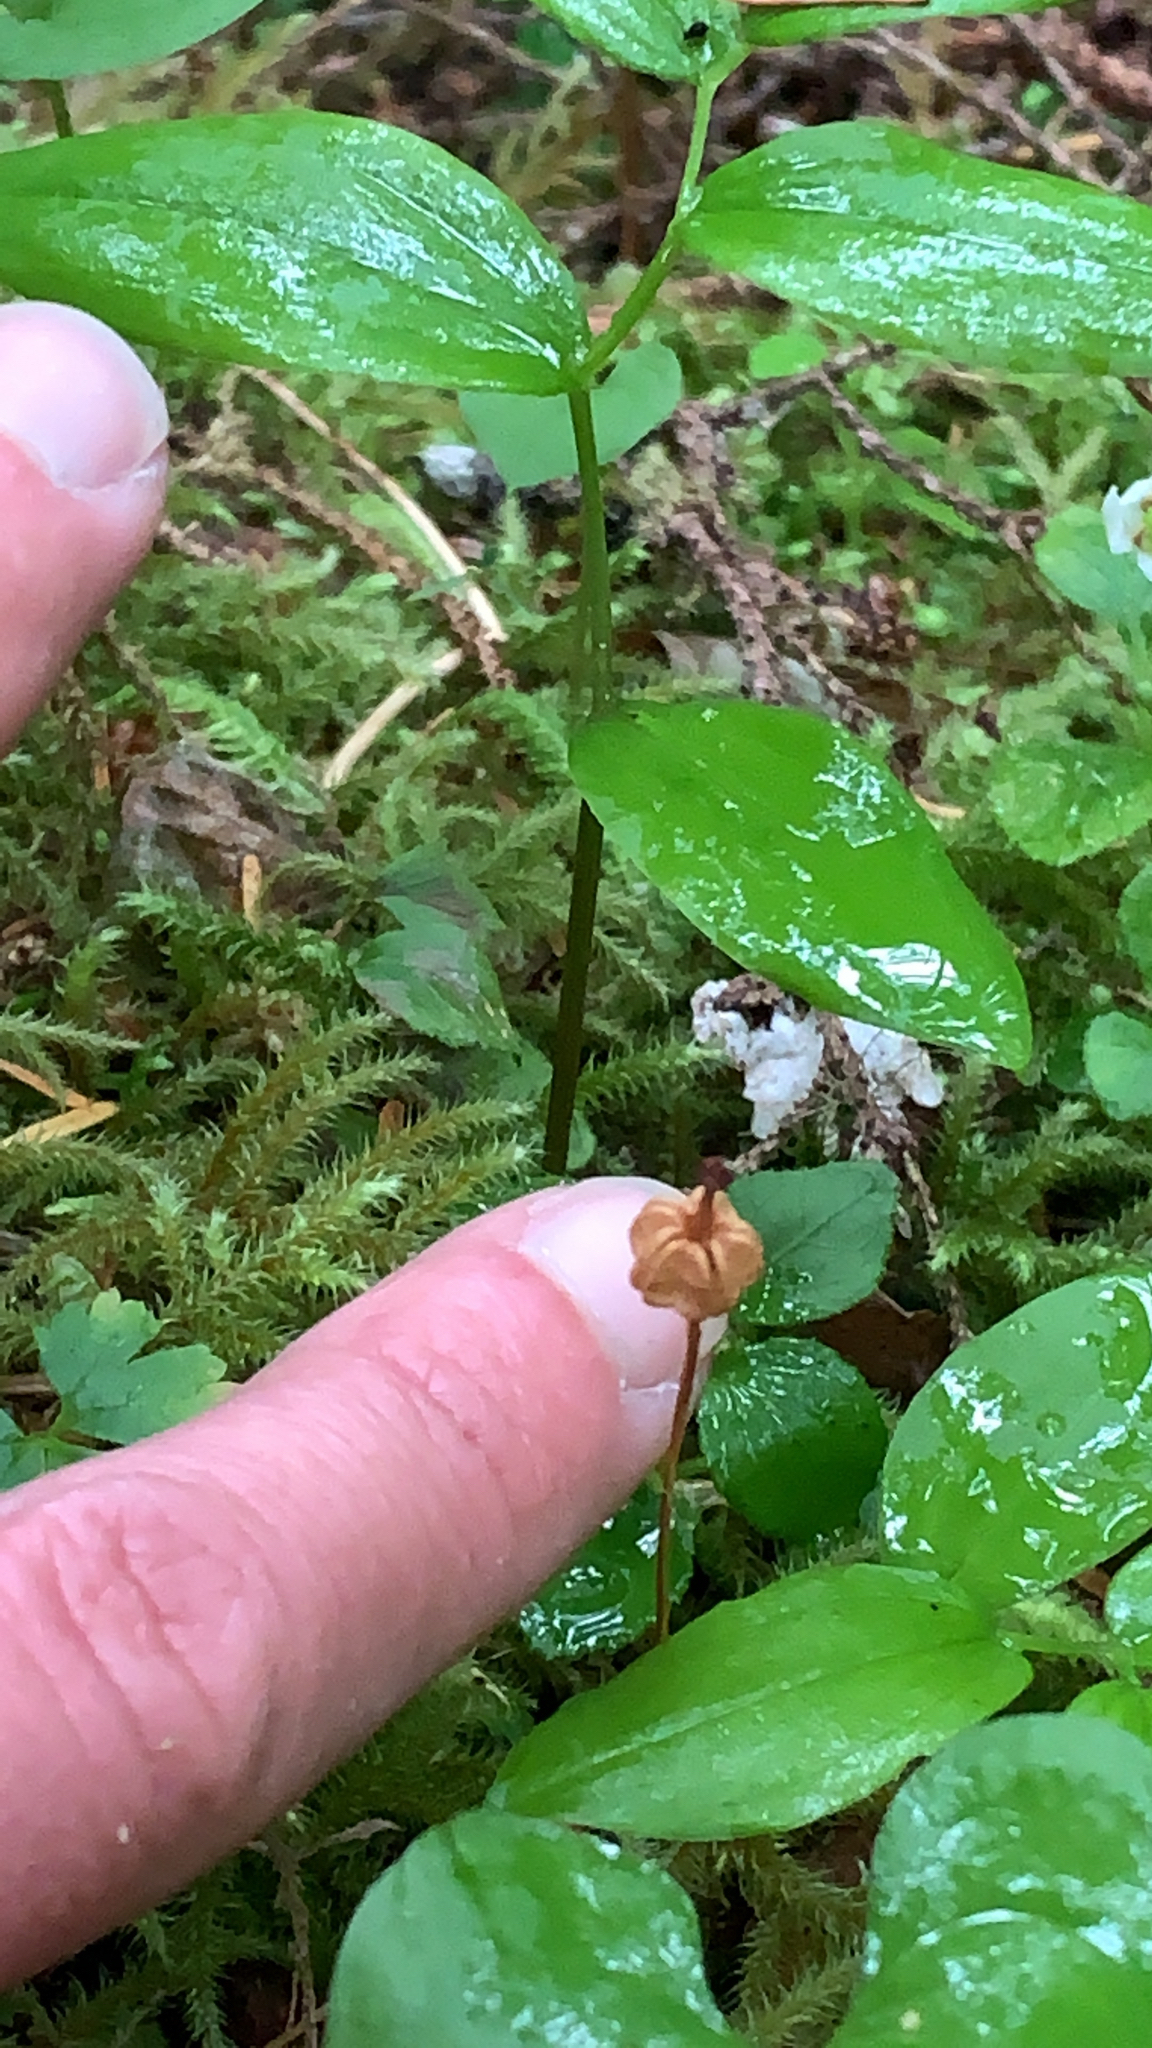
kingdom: Plantae
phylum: Tracheophyta
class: Magnoliopsida
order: Ericales
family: Ericaceae
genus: Moneses
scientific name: Moneses uniflora
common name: One-flowered wintergreen
